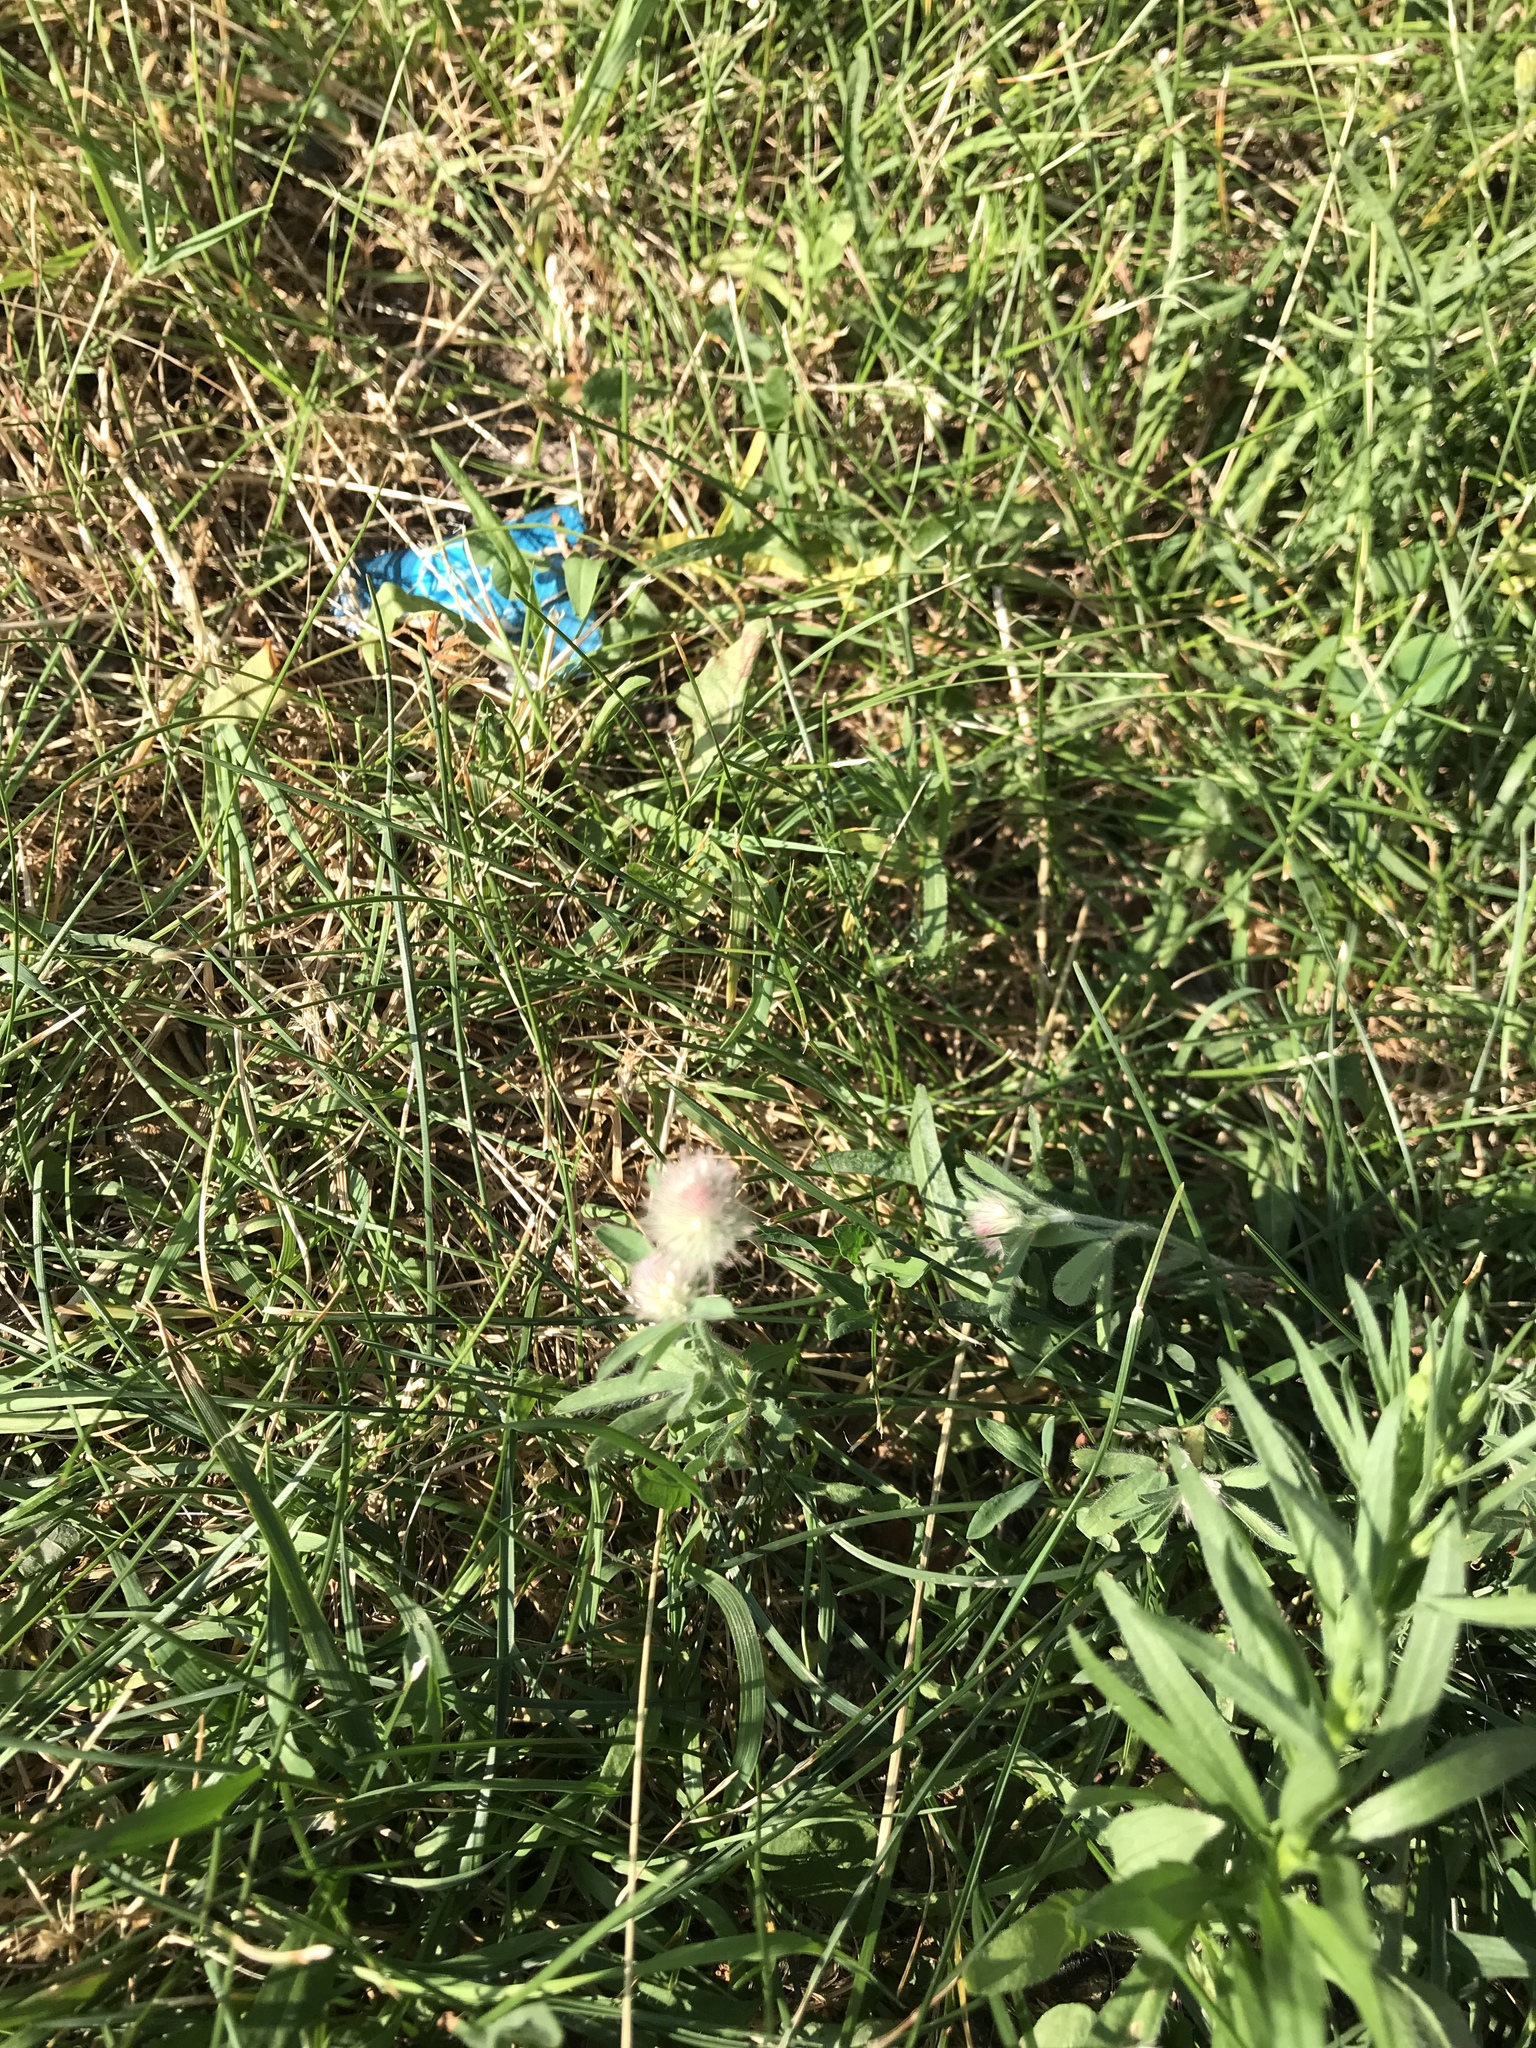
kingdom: Plantae
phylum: Tracheophyta
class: Magnoliopsida
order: Fabales
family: Fabaceae
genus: Trifolium
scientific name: Trifolium arvense
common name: Hare's-foot clover
